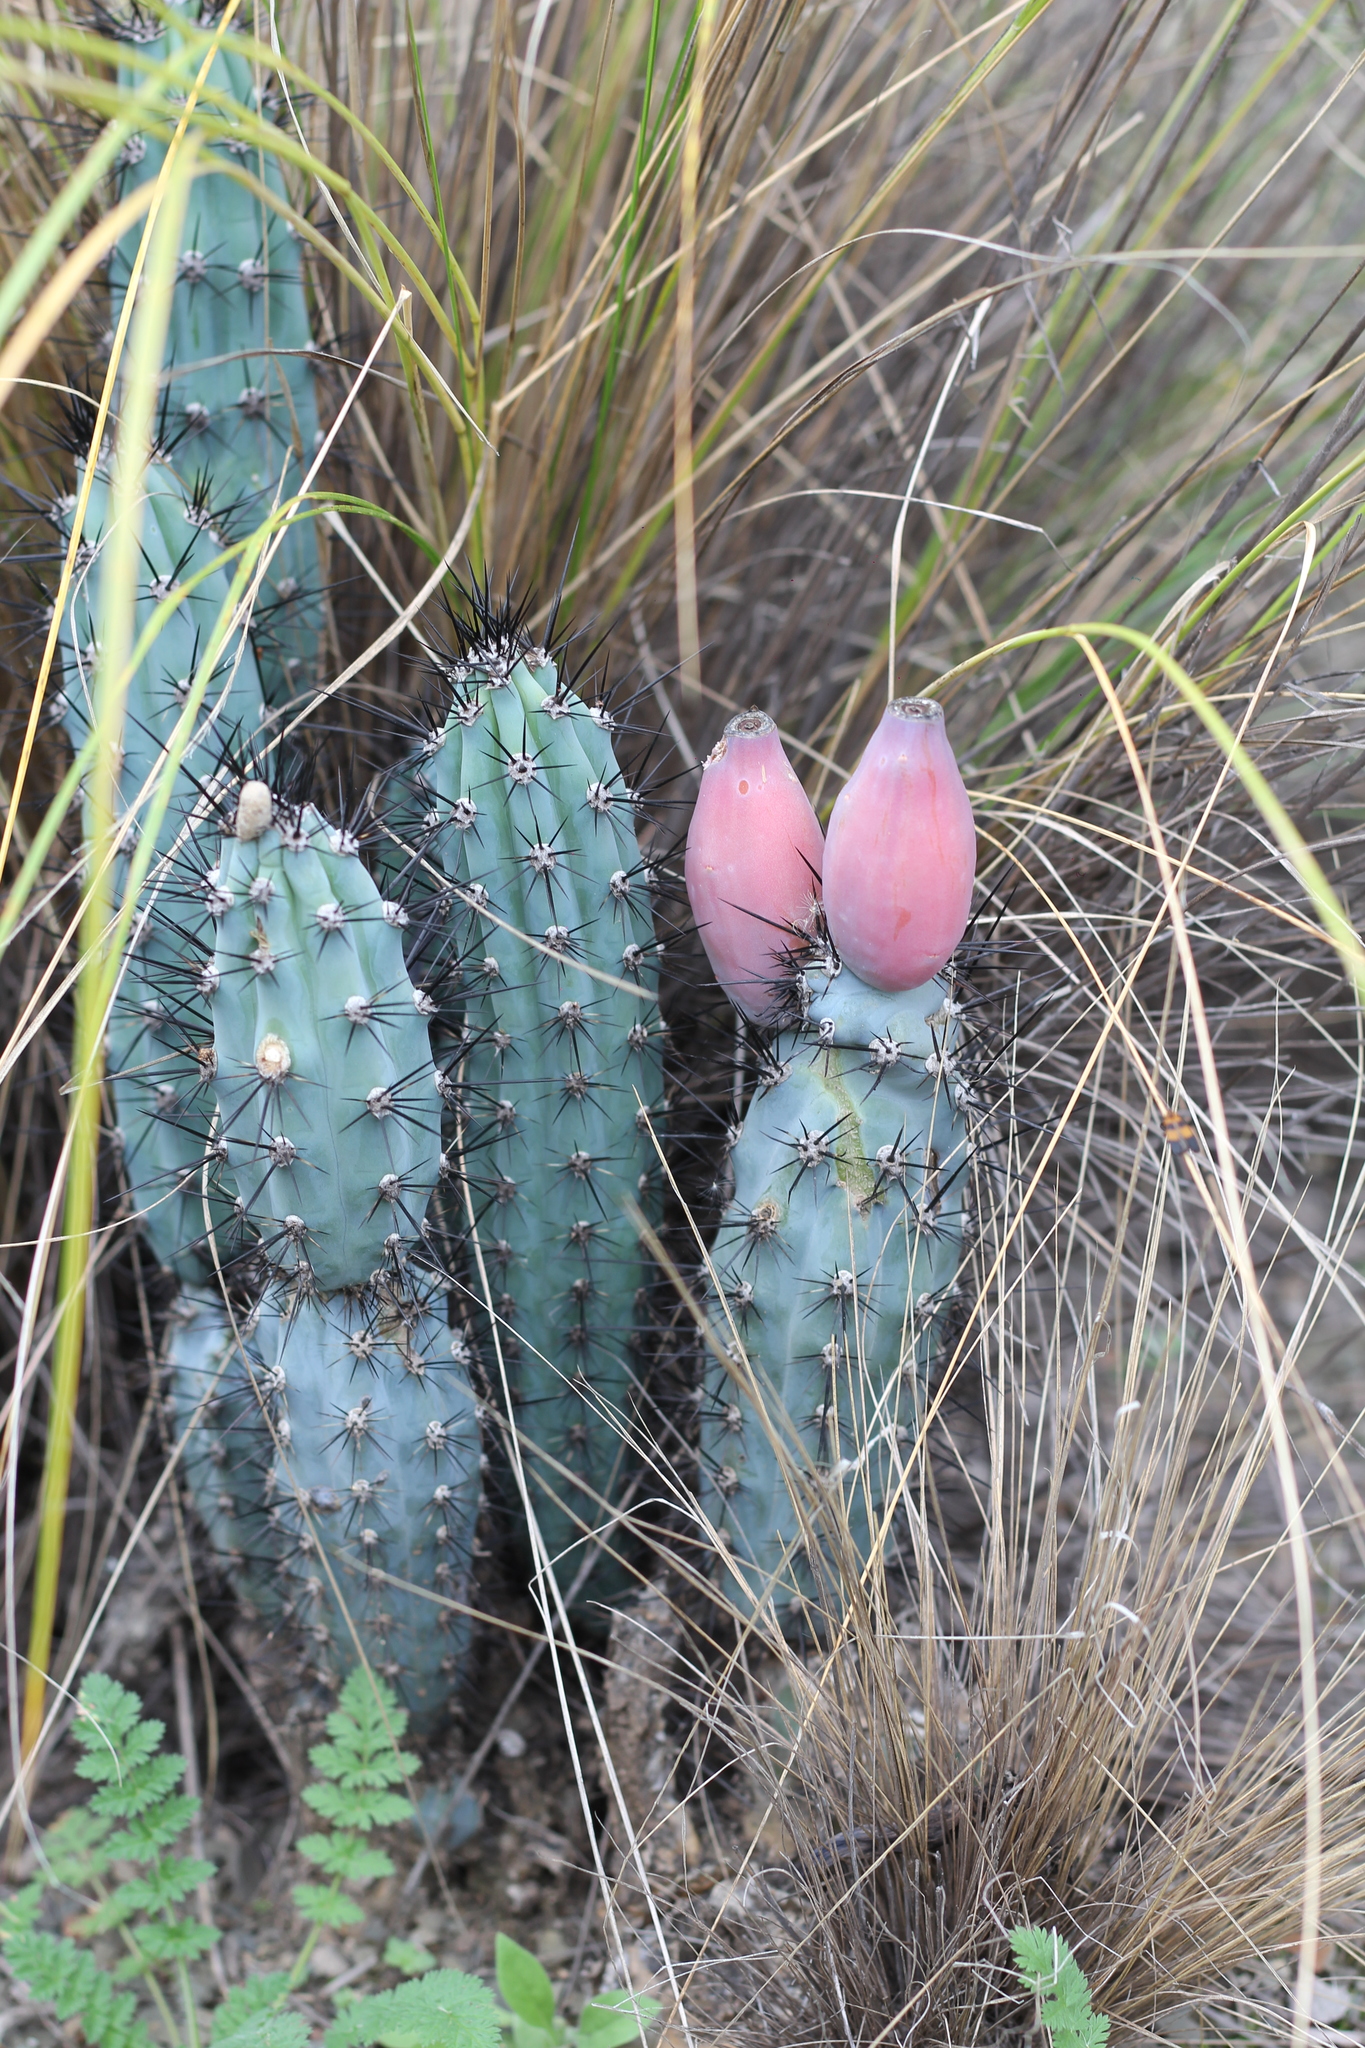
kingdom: Plantae
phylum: Tracheophyta
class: Magnoliopsida
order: Caryophyllales
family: Cactaceae
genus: Cereus
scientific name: Cereus aethiops
